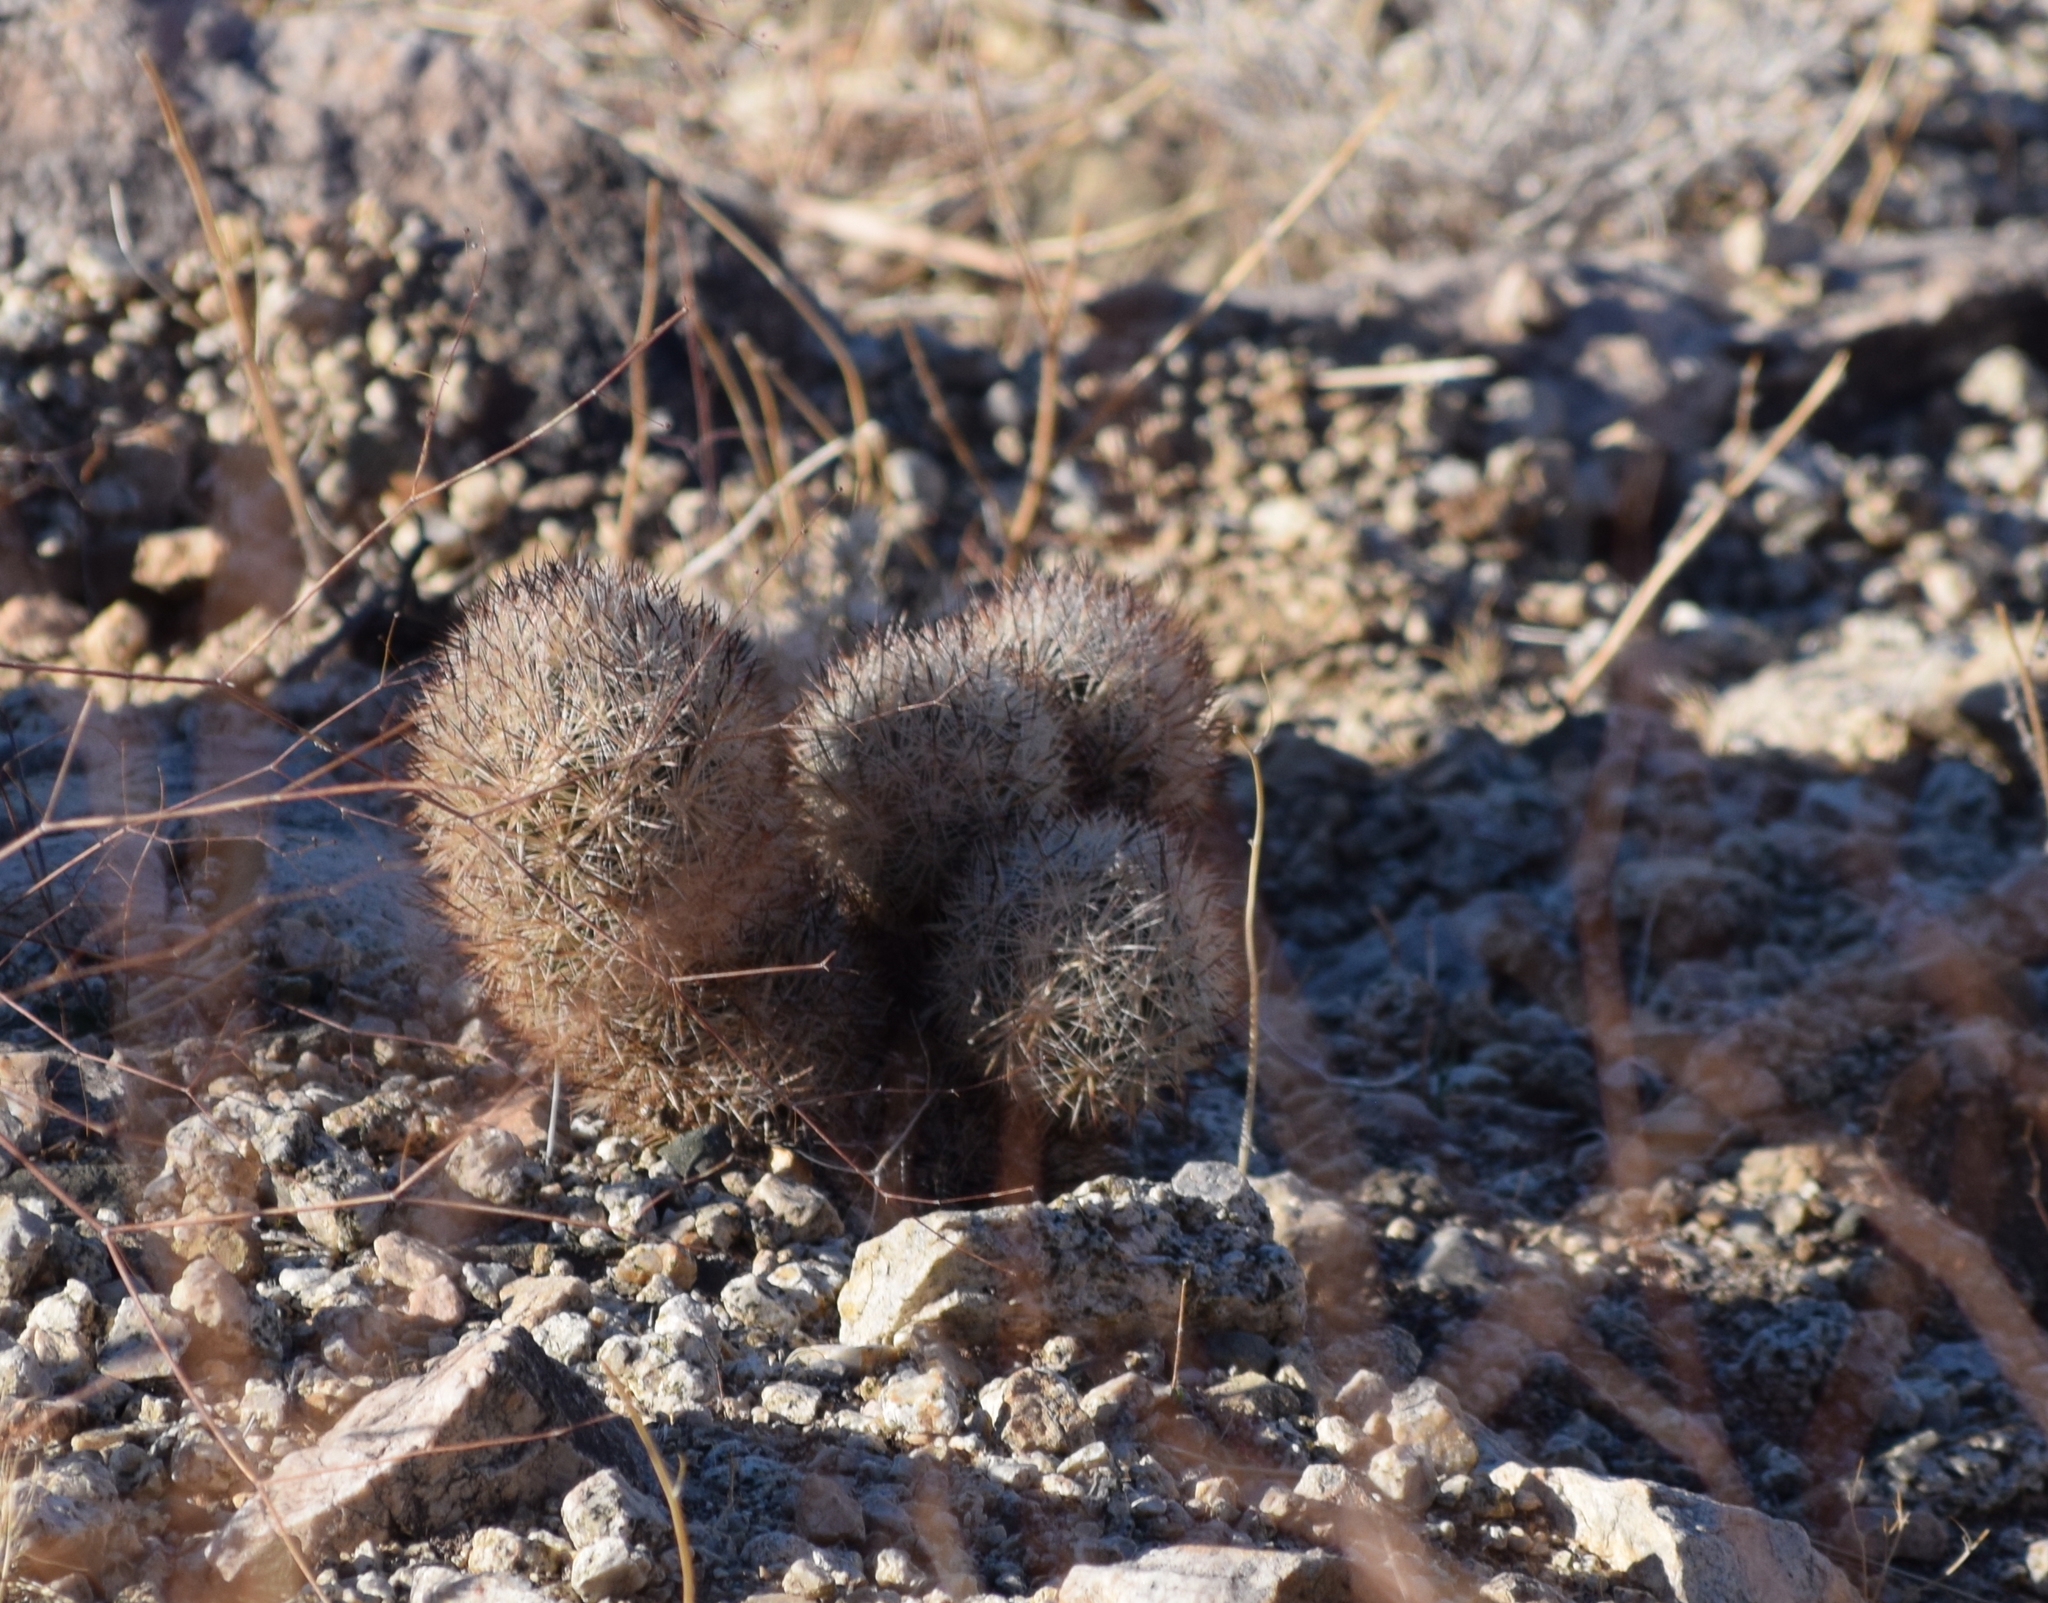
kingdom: Plantae
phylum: Tracheophyta
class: Magnoliopsida
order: Caryophyllales
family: Cactaceae
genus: Pelecyphora
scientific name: Pelecyphora alversonii
